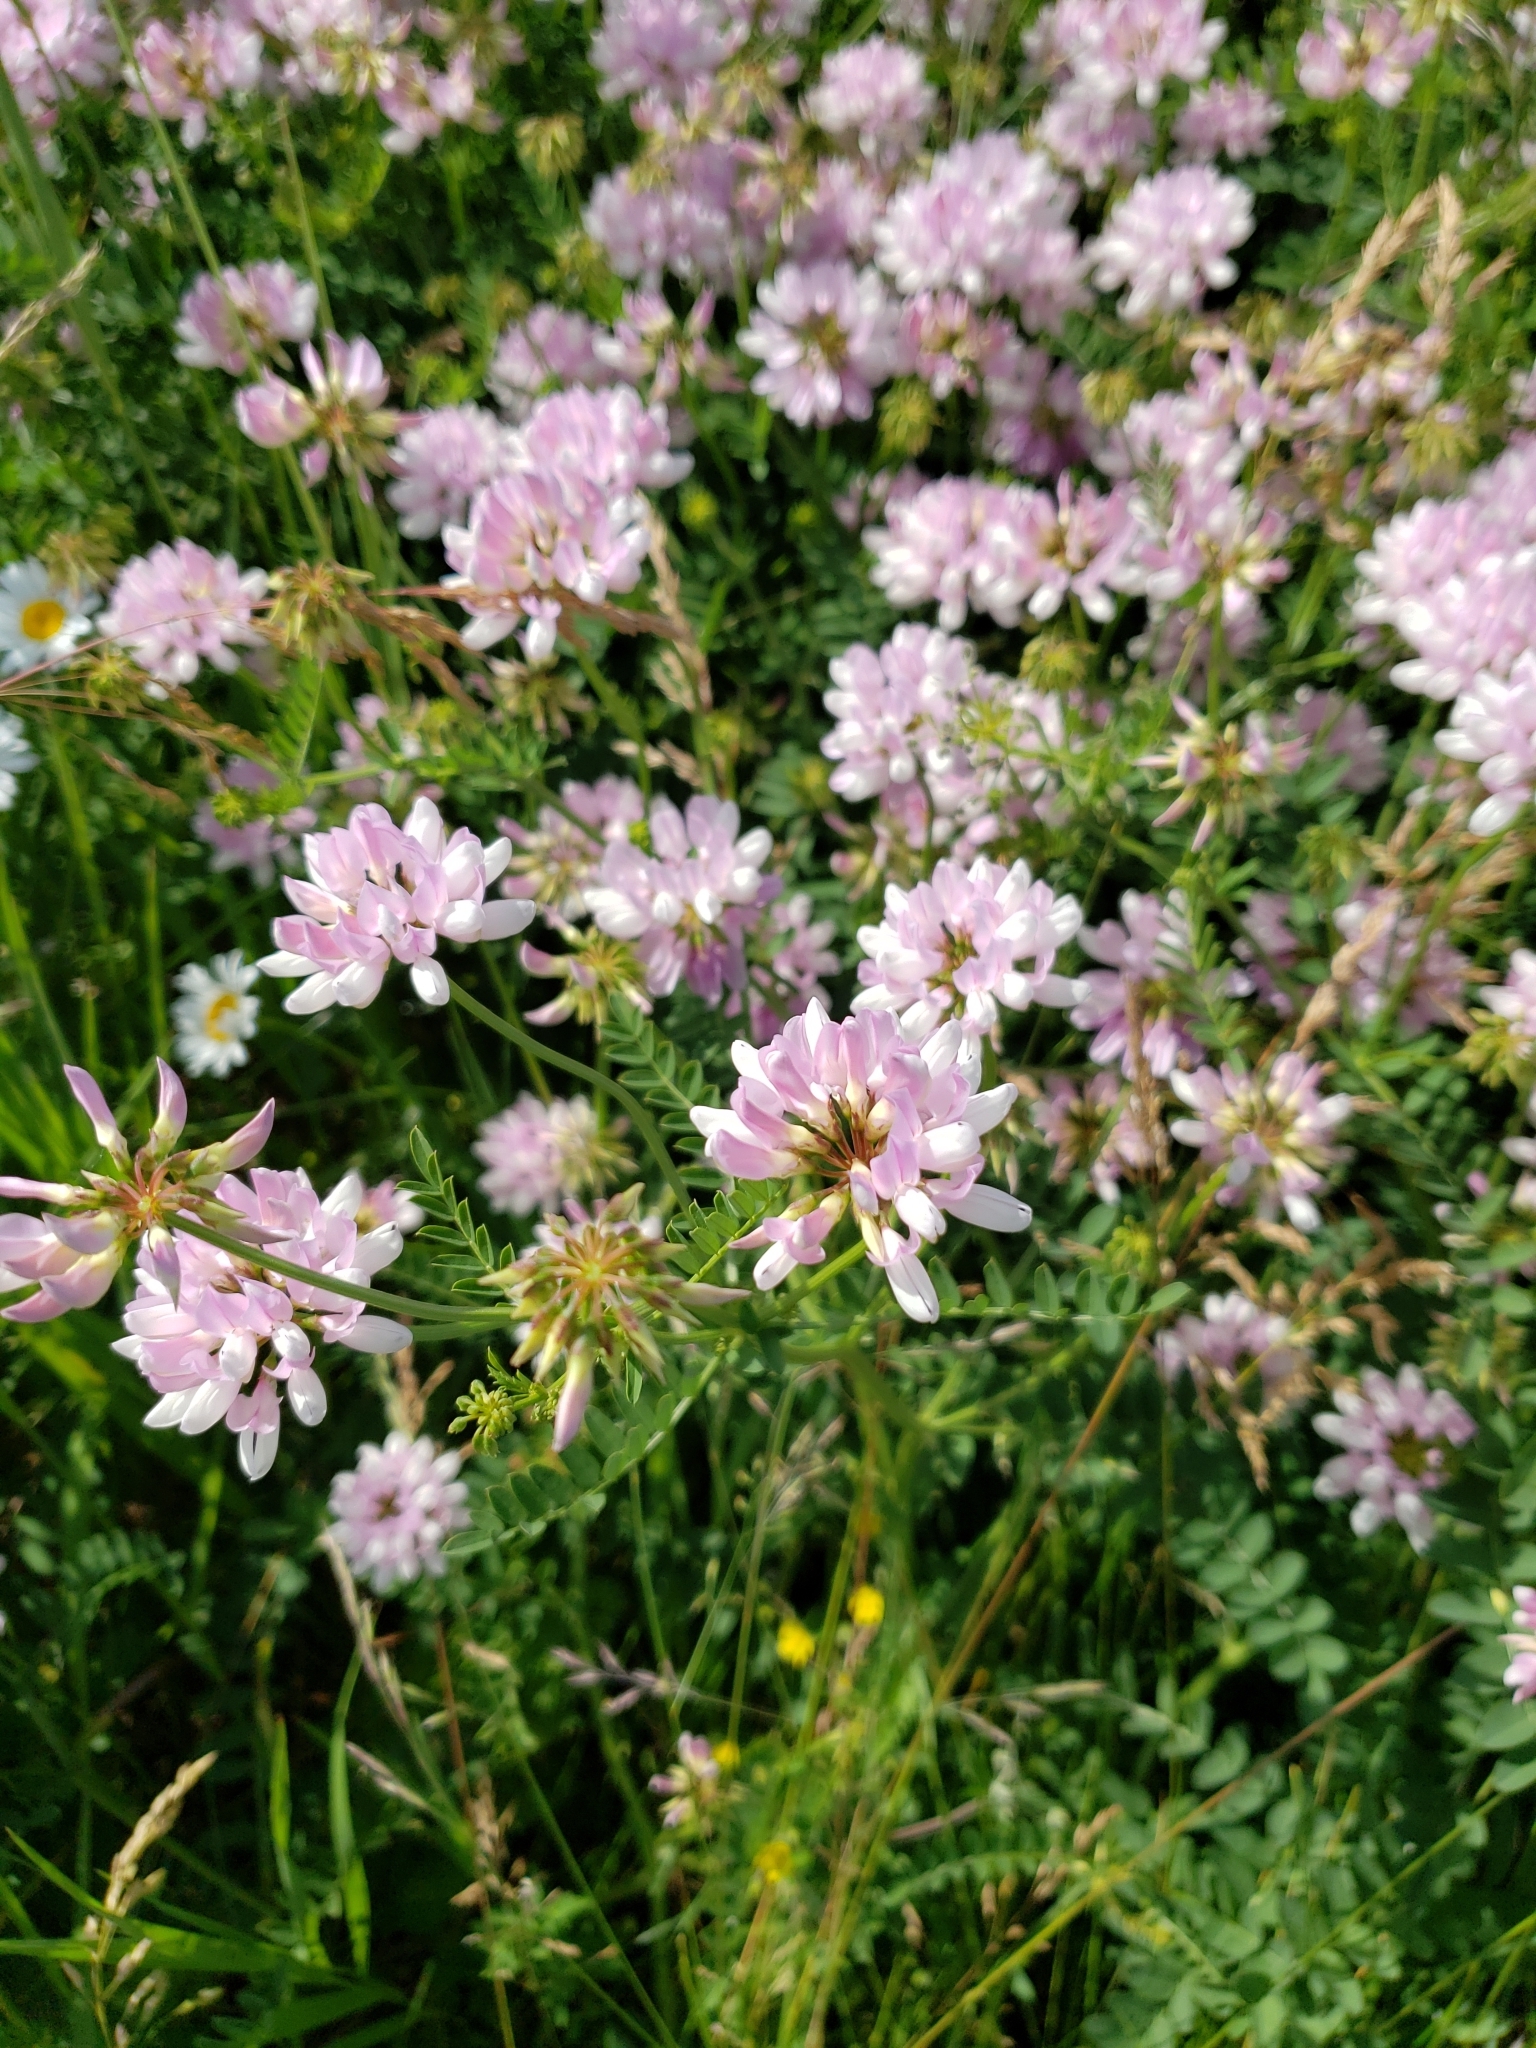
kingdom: Plantae
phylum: Tracheophyta
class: Magnoliopsida
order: Fabales
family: Fabaceae
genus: Coronilla
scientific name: Coronilla varia
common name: Crownvetch
